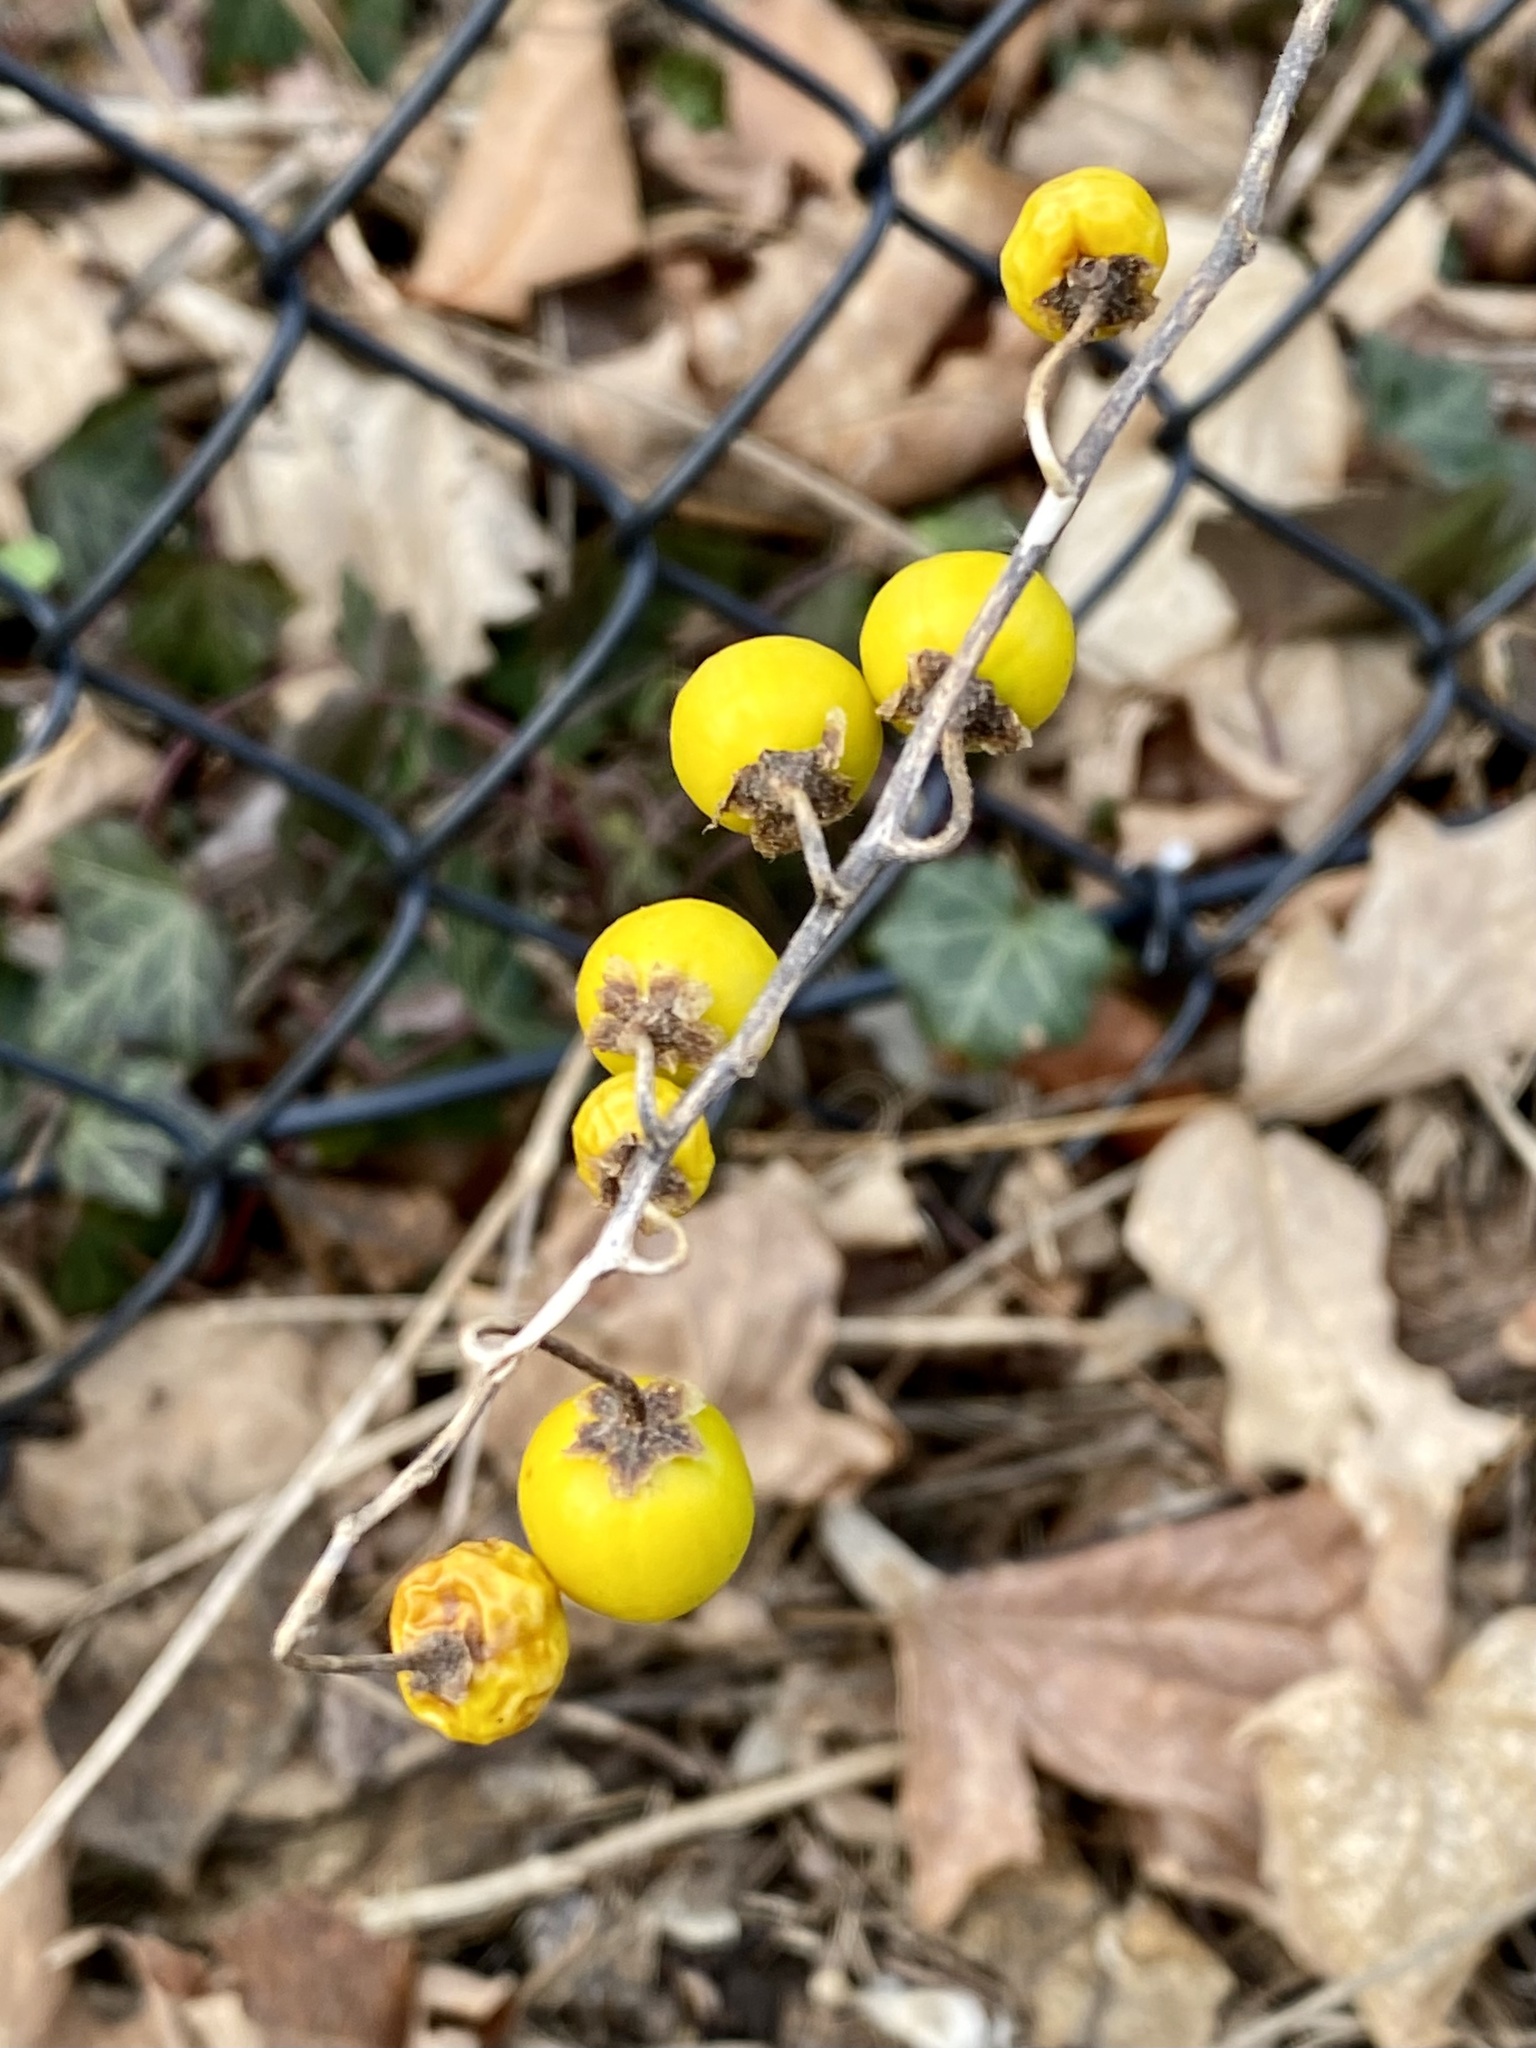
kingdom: Plantae
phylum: Tracheophyta
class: Magnoliopsida
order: Solanales
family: Solanaceae
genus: Solanum
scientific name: Solanum carolinense
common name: Horse-nettle
